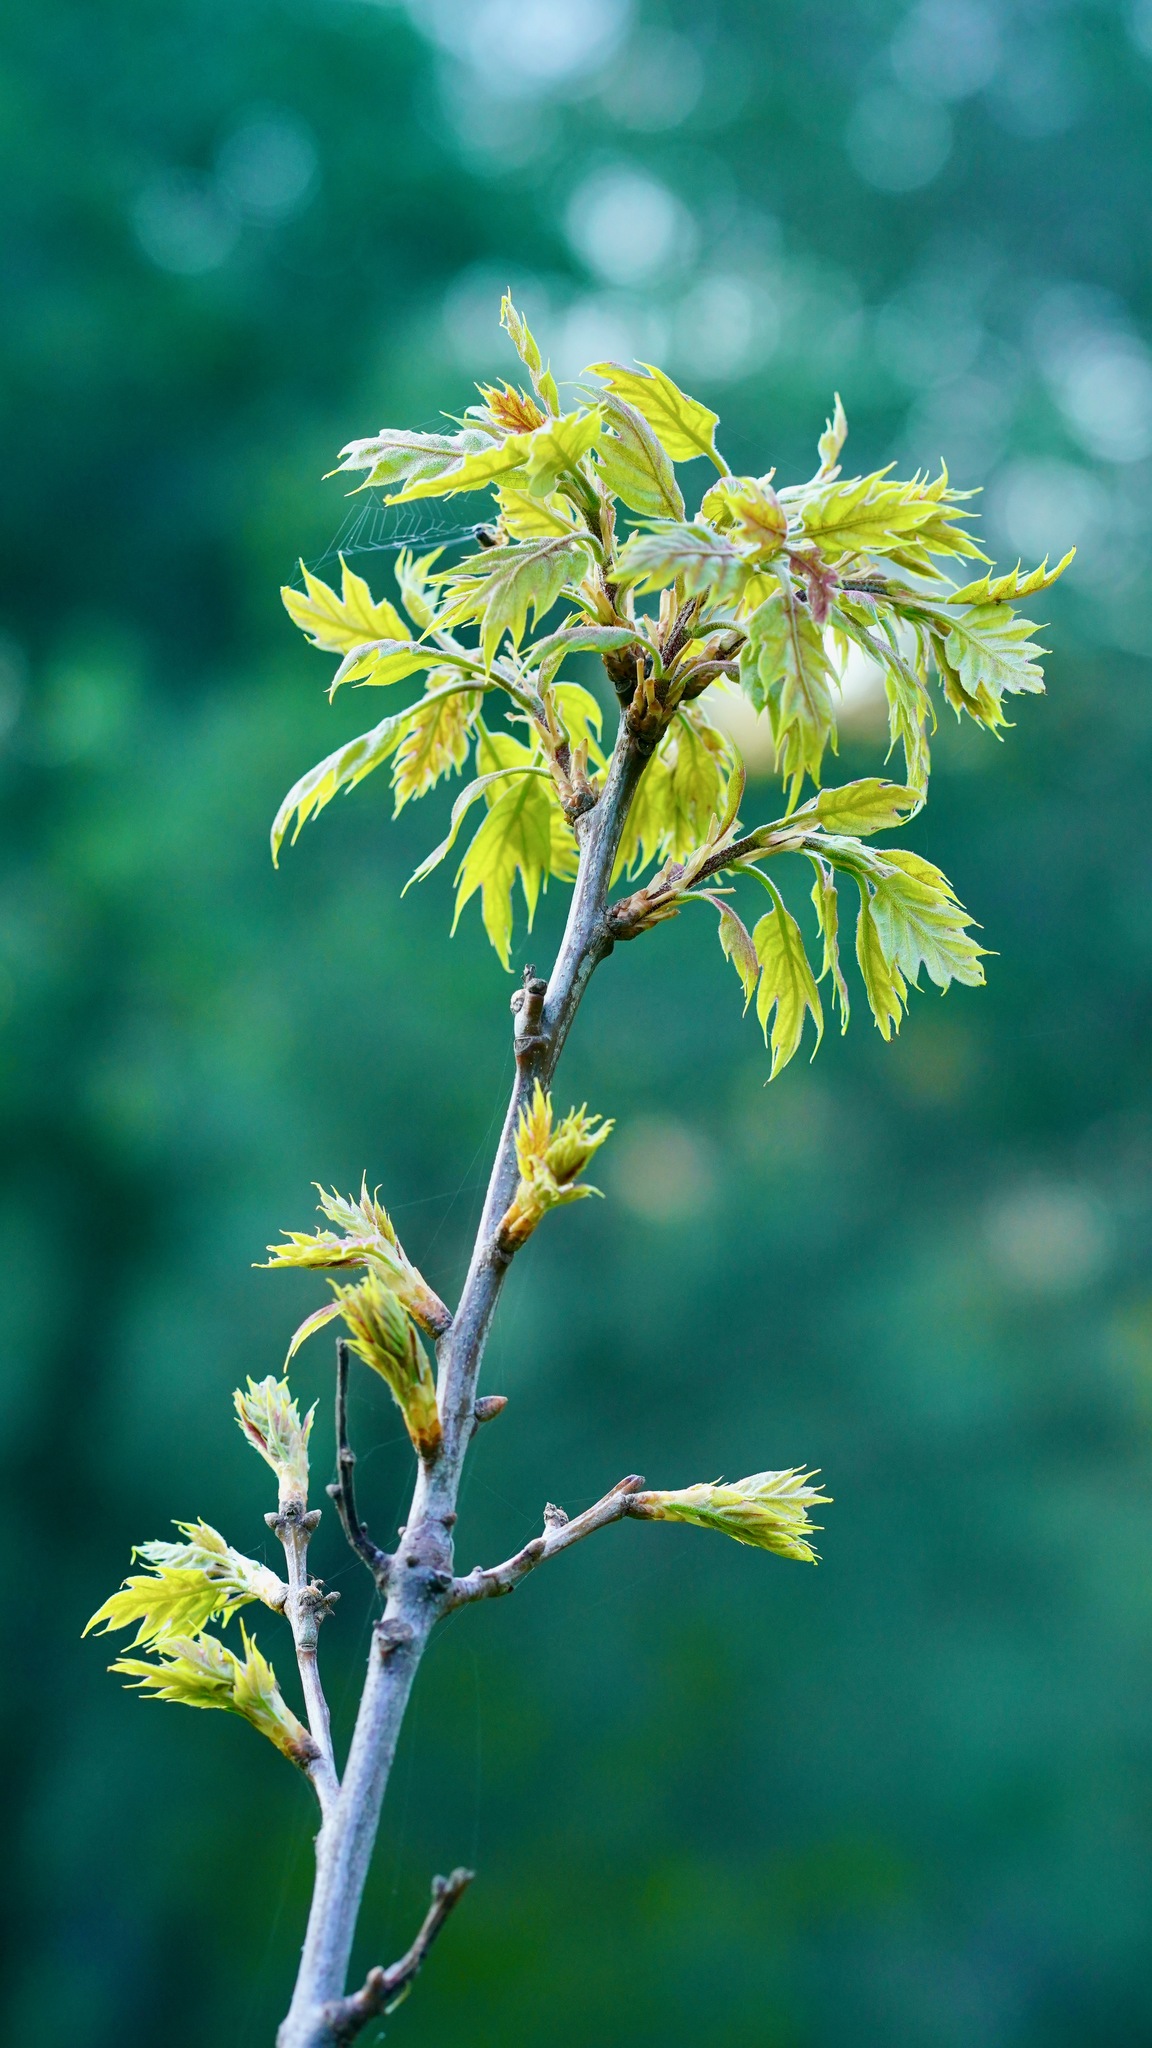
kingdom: Plantae
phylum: Tracheophyta
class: Magnoliopsida
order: Fagales
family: Fagaceae
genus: Quercus
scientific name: Quercus kelloggii
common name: California black oak
